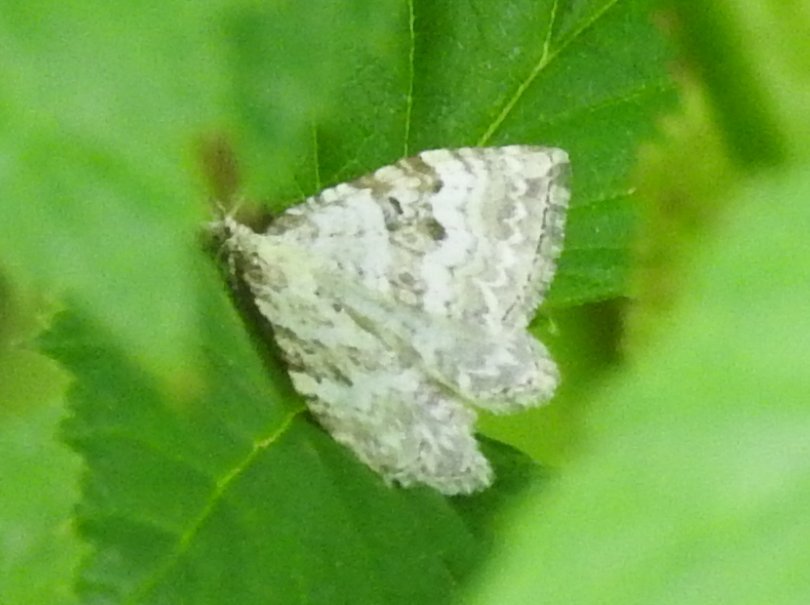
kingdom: Animalia
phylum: Arthropoda
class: Insecta
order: Lepidoptera
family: Geometridae
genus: Xanthorhoe
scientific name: Xanthorhoe montanata
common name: Silver-ground carpet
